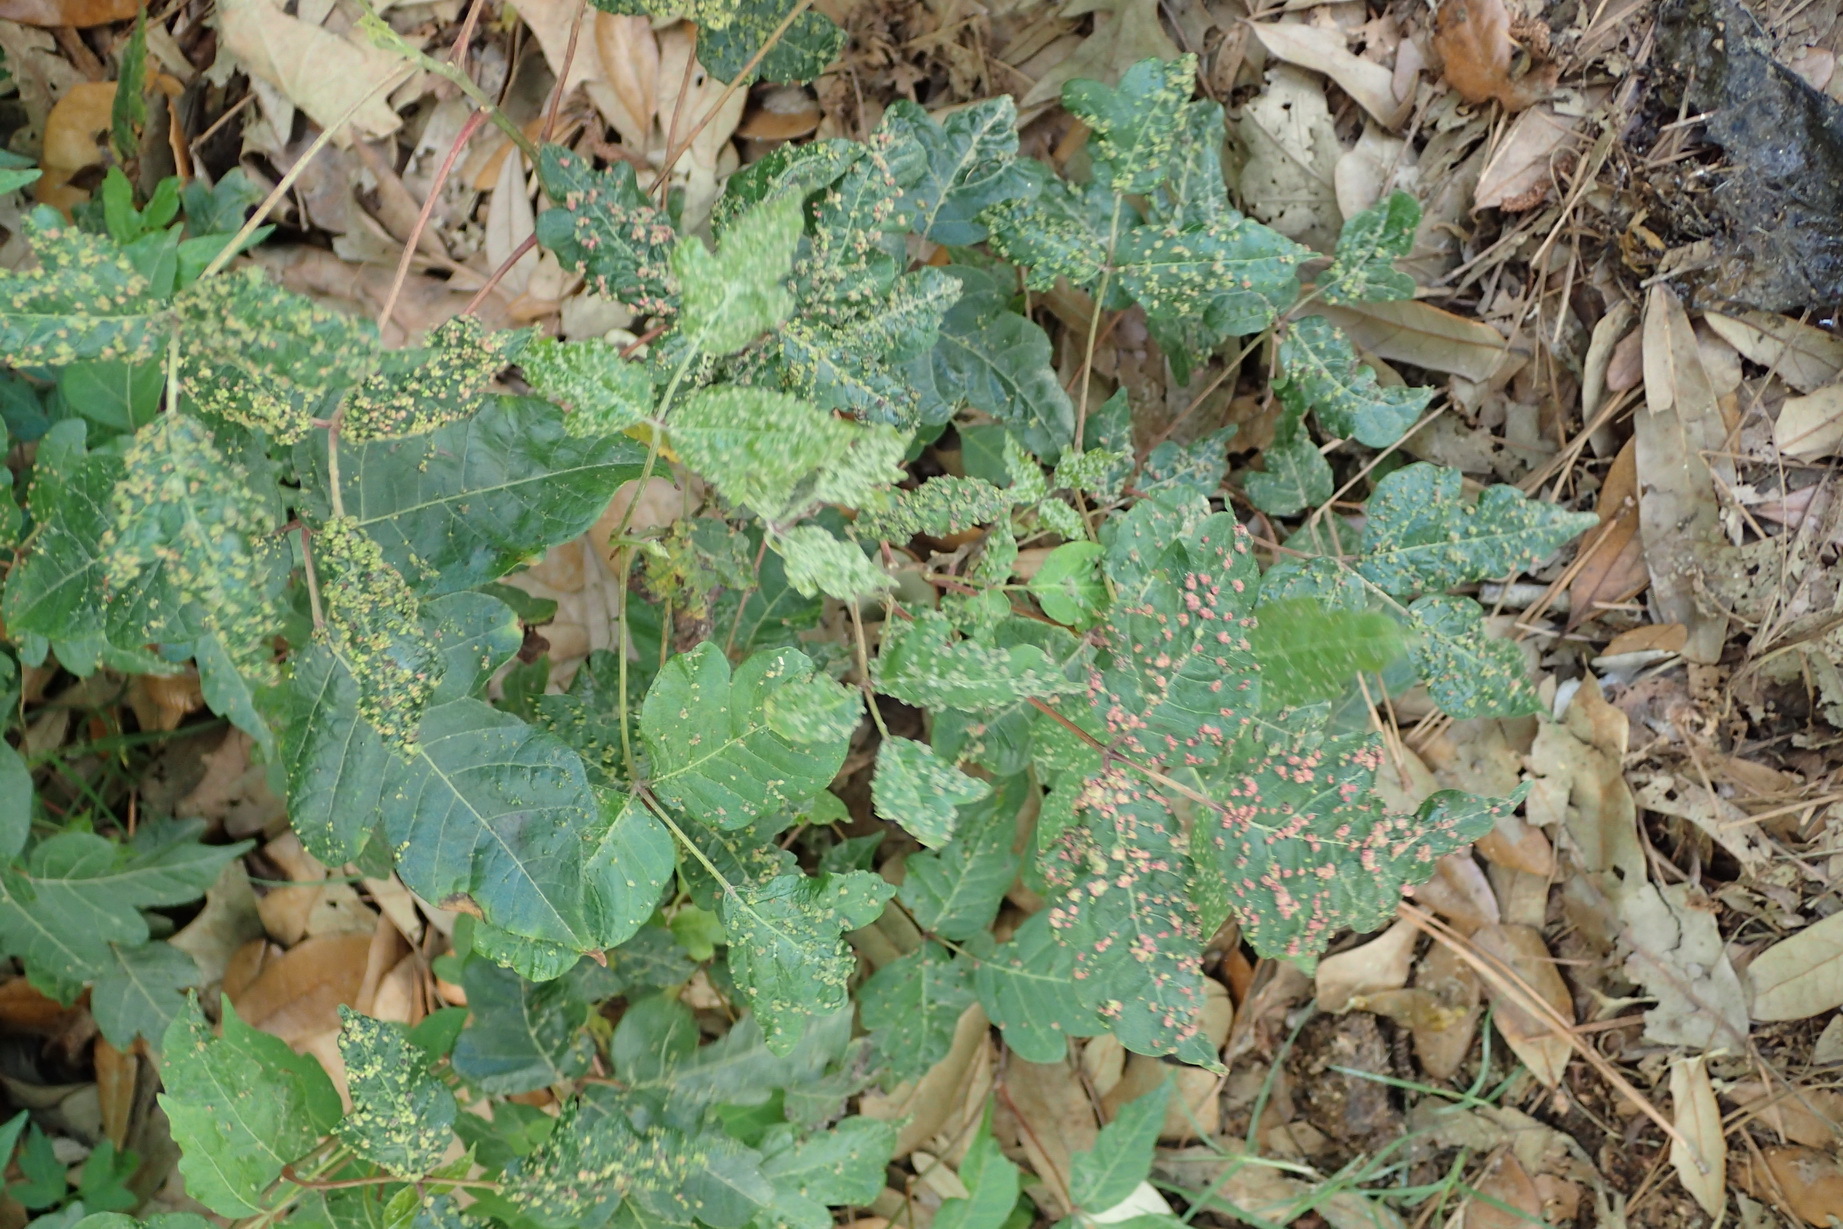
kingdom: Plantae
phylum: Tracheophyta
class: Magnoliopsida
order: Sapindales
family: Anacardiaceae
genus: Toxicodendron
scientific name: Toxicodendron radicans
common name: Poison ivy
